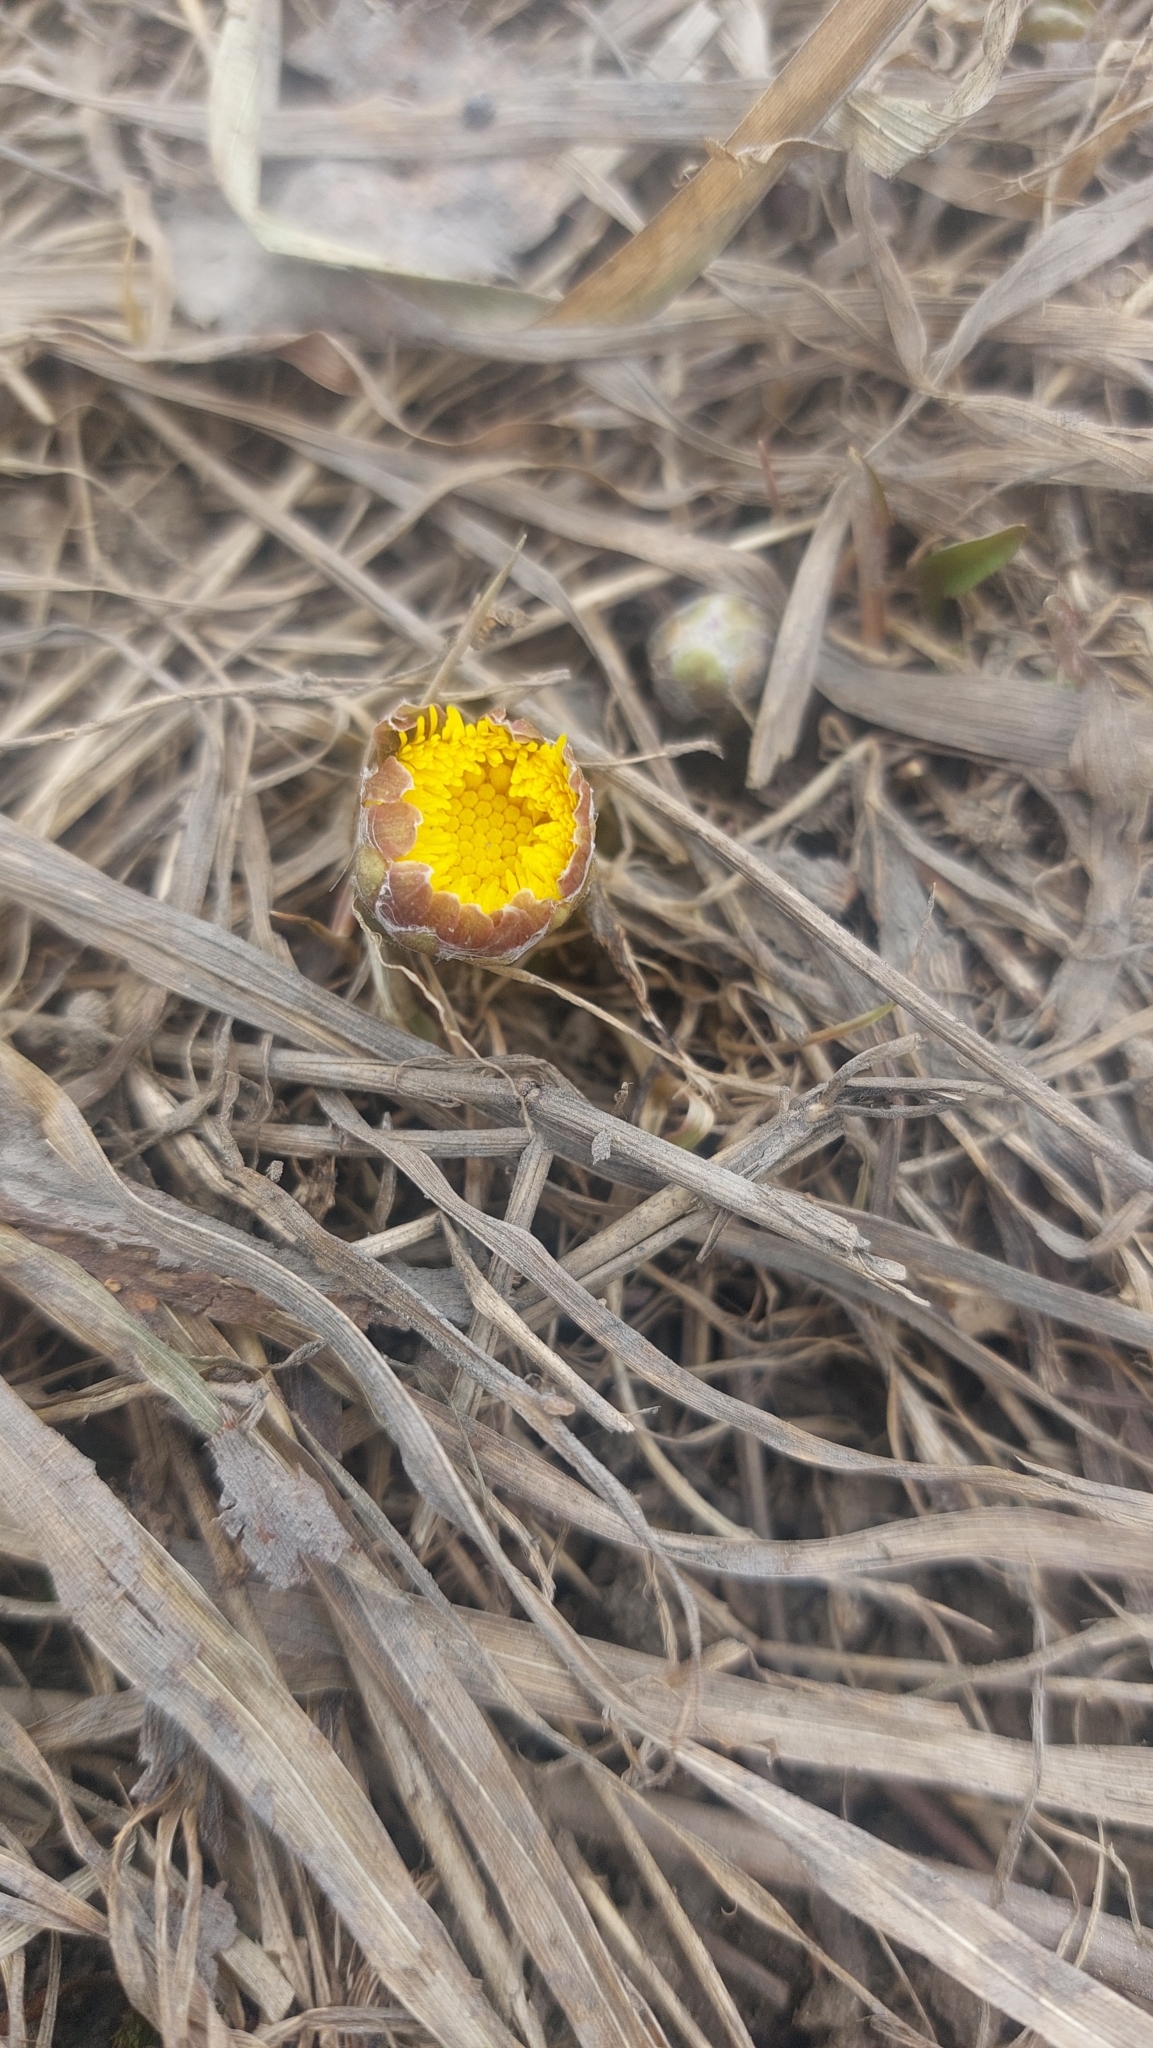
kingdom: Plantae
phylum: Tracheophyta
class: Magnoliopsida
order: Asterales
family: Asteraceae
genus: Tussilago
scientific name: Tussilago farfara
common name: Coltsfoot
